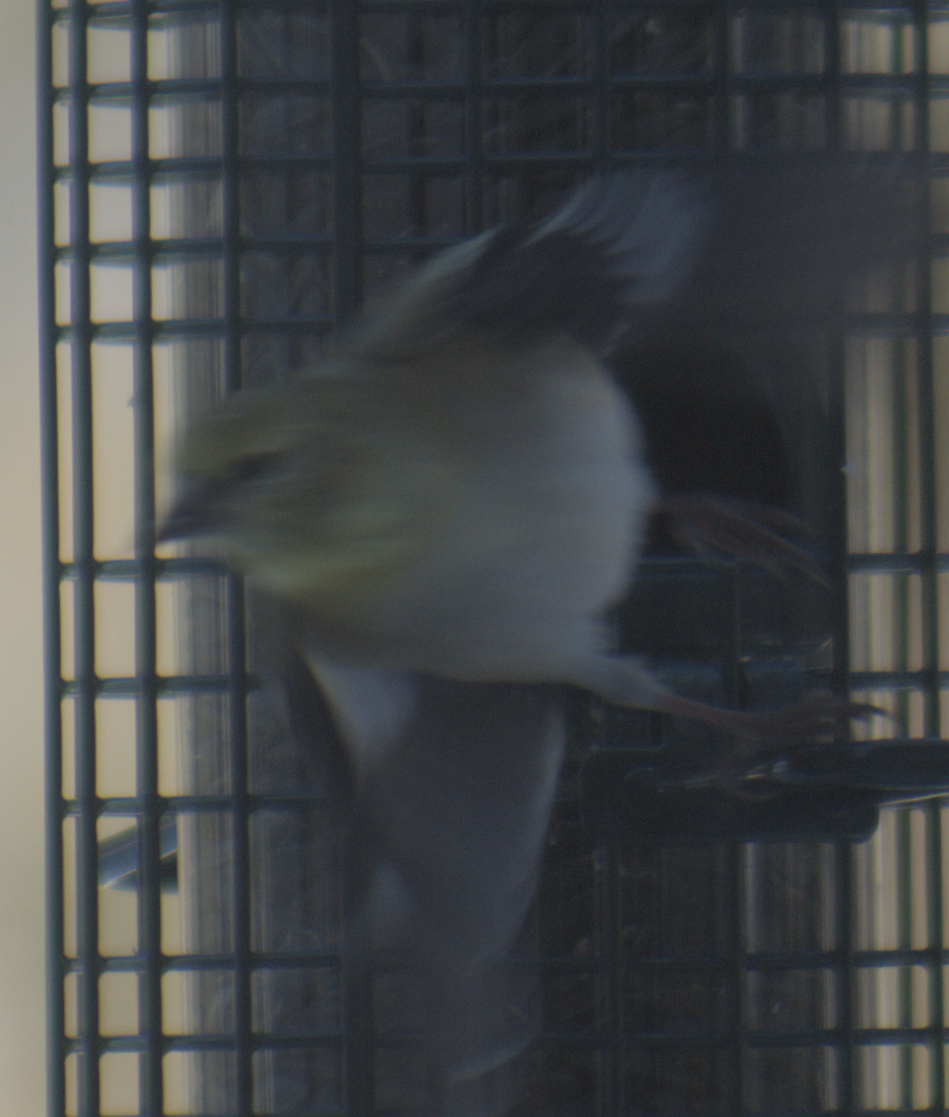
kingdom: Animalia
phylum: Chordata
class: Aves
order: Passeriformes
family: Fringillidae
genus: Spinus
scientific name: Spinus tristis
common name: American goldfinch
